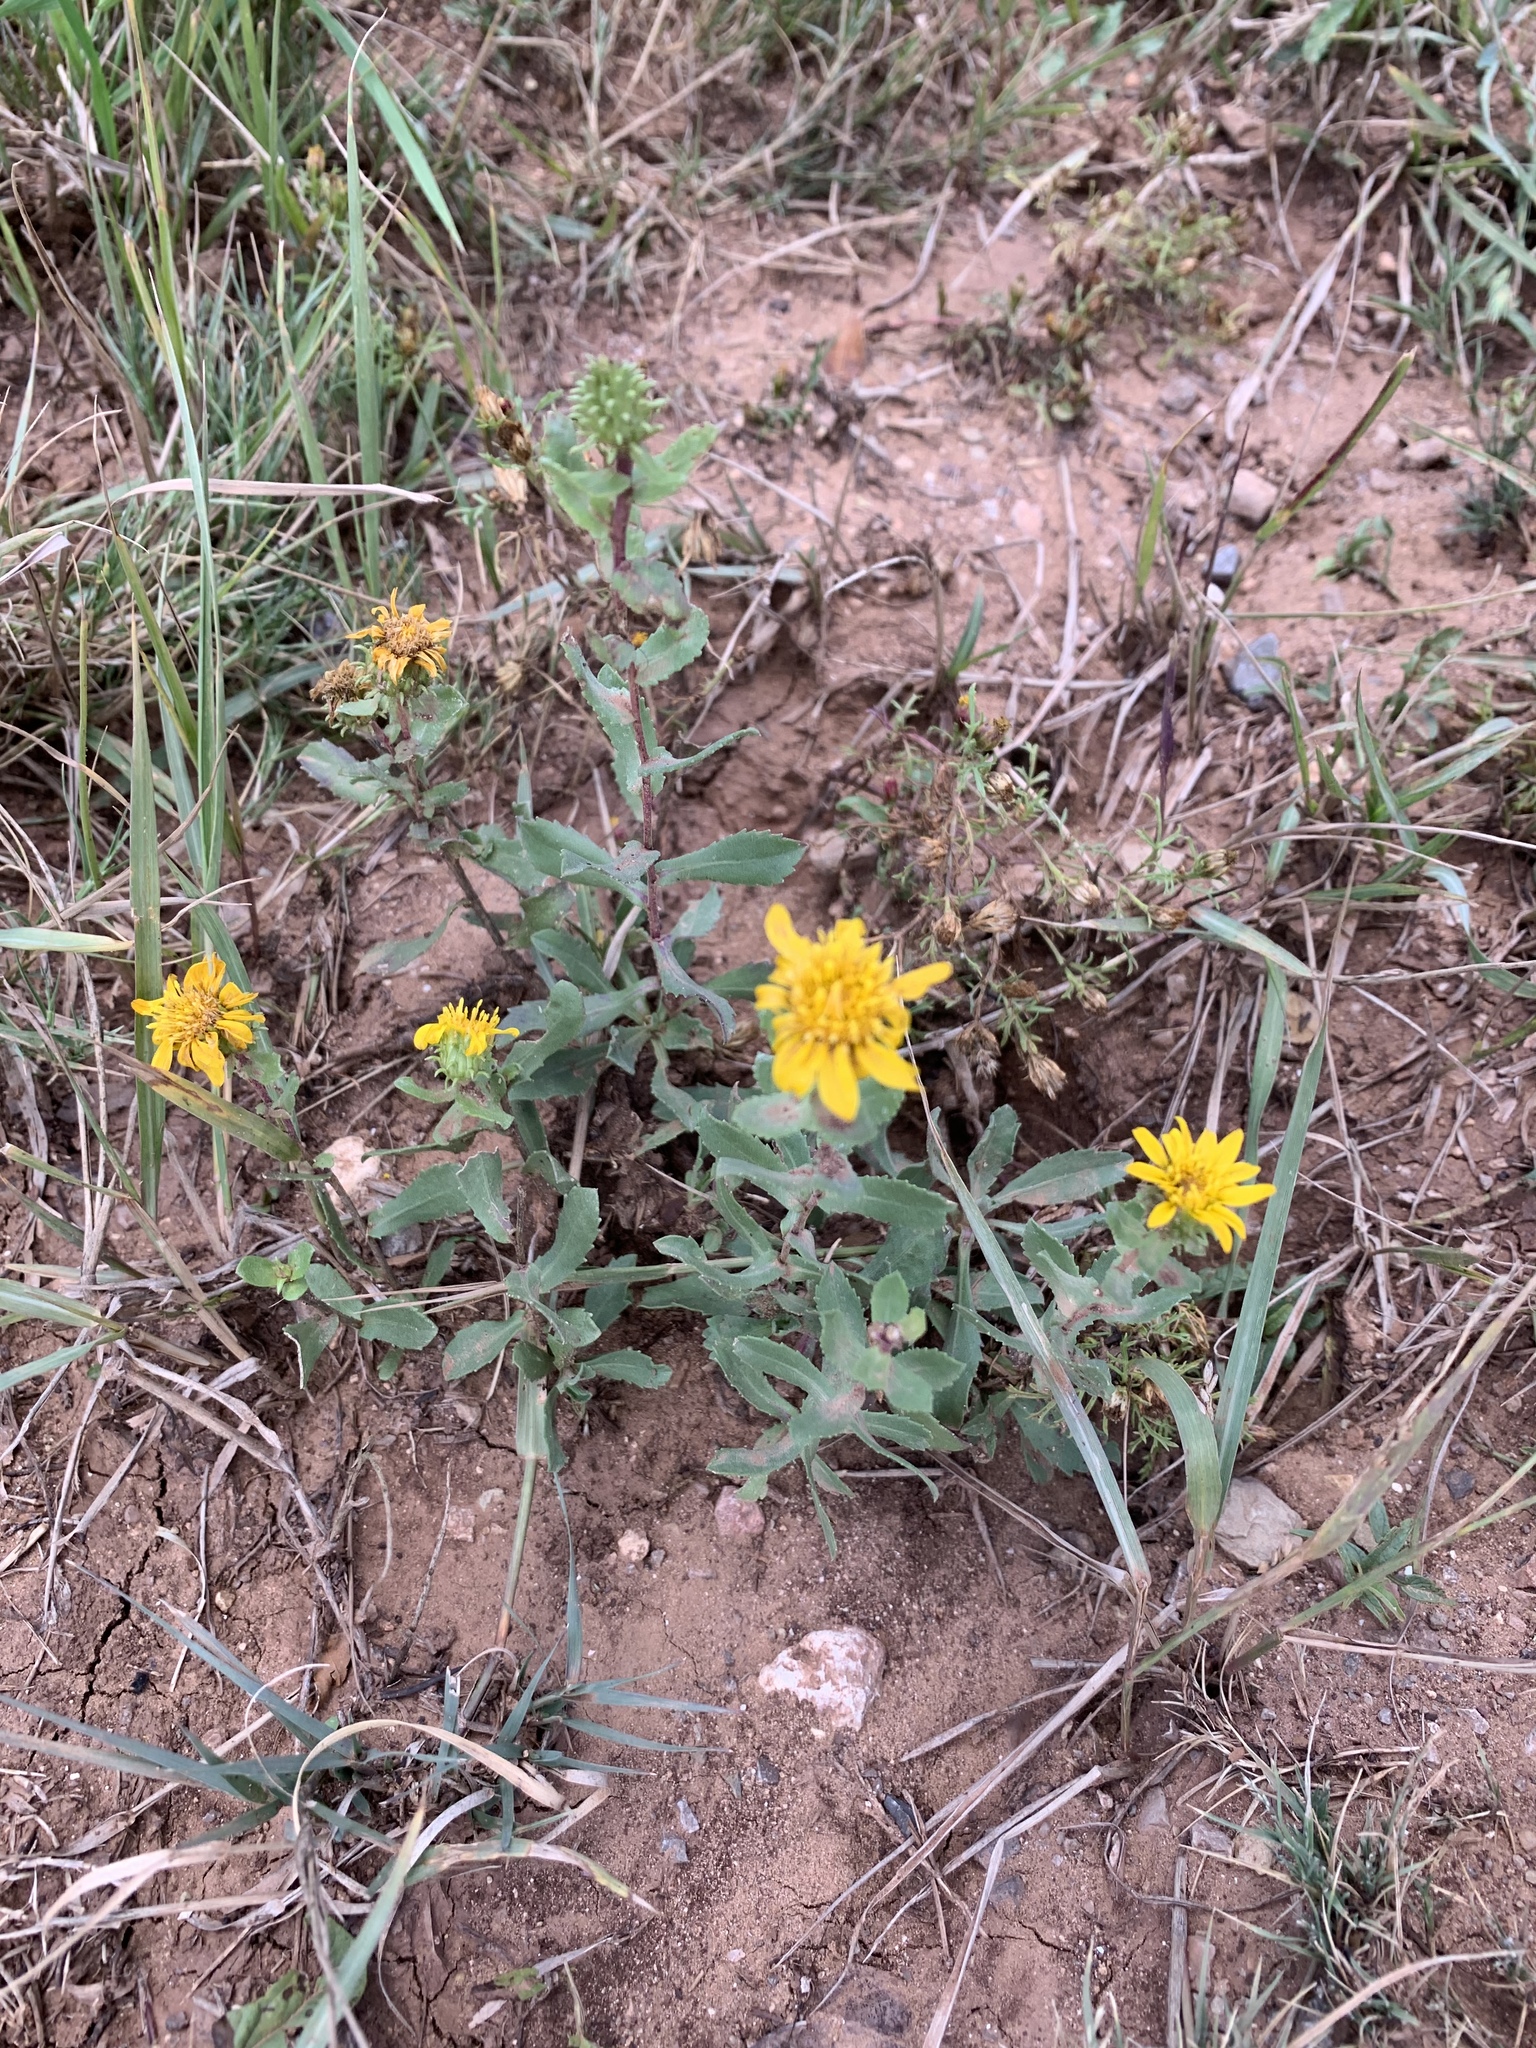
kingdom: Plantae
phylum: Tracheophyta
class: Magnoliopsida
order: Asterales
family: Asteraceae
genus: Grindelia
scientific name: Grindelia scabra
